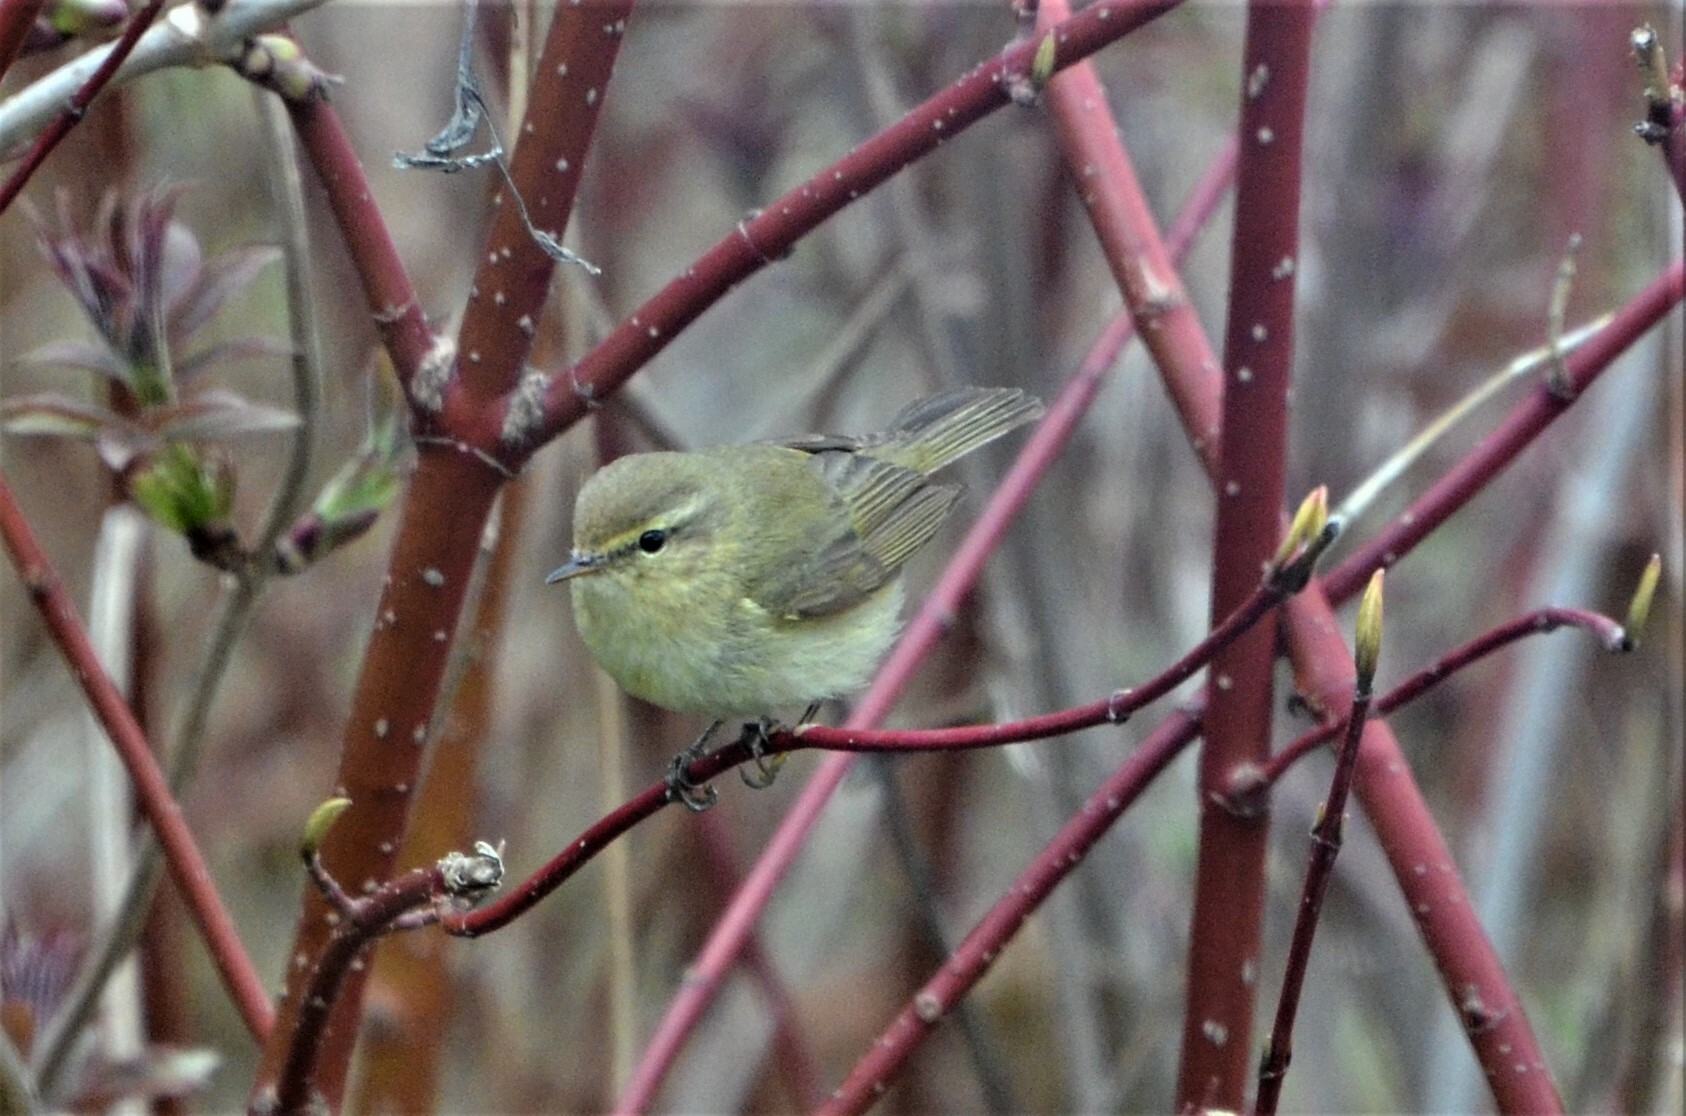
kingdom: Animalia
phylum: Chordata
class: Aves
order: Passeriformes
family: Phylloscopidae
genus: Phylloscopus
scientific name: Phylloscopus collybita
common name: Common chiffchaff
